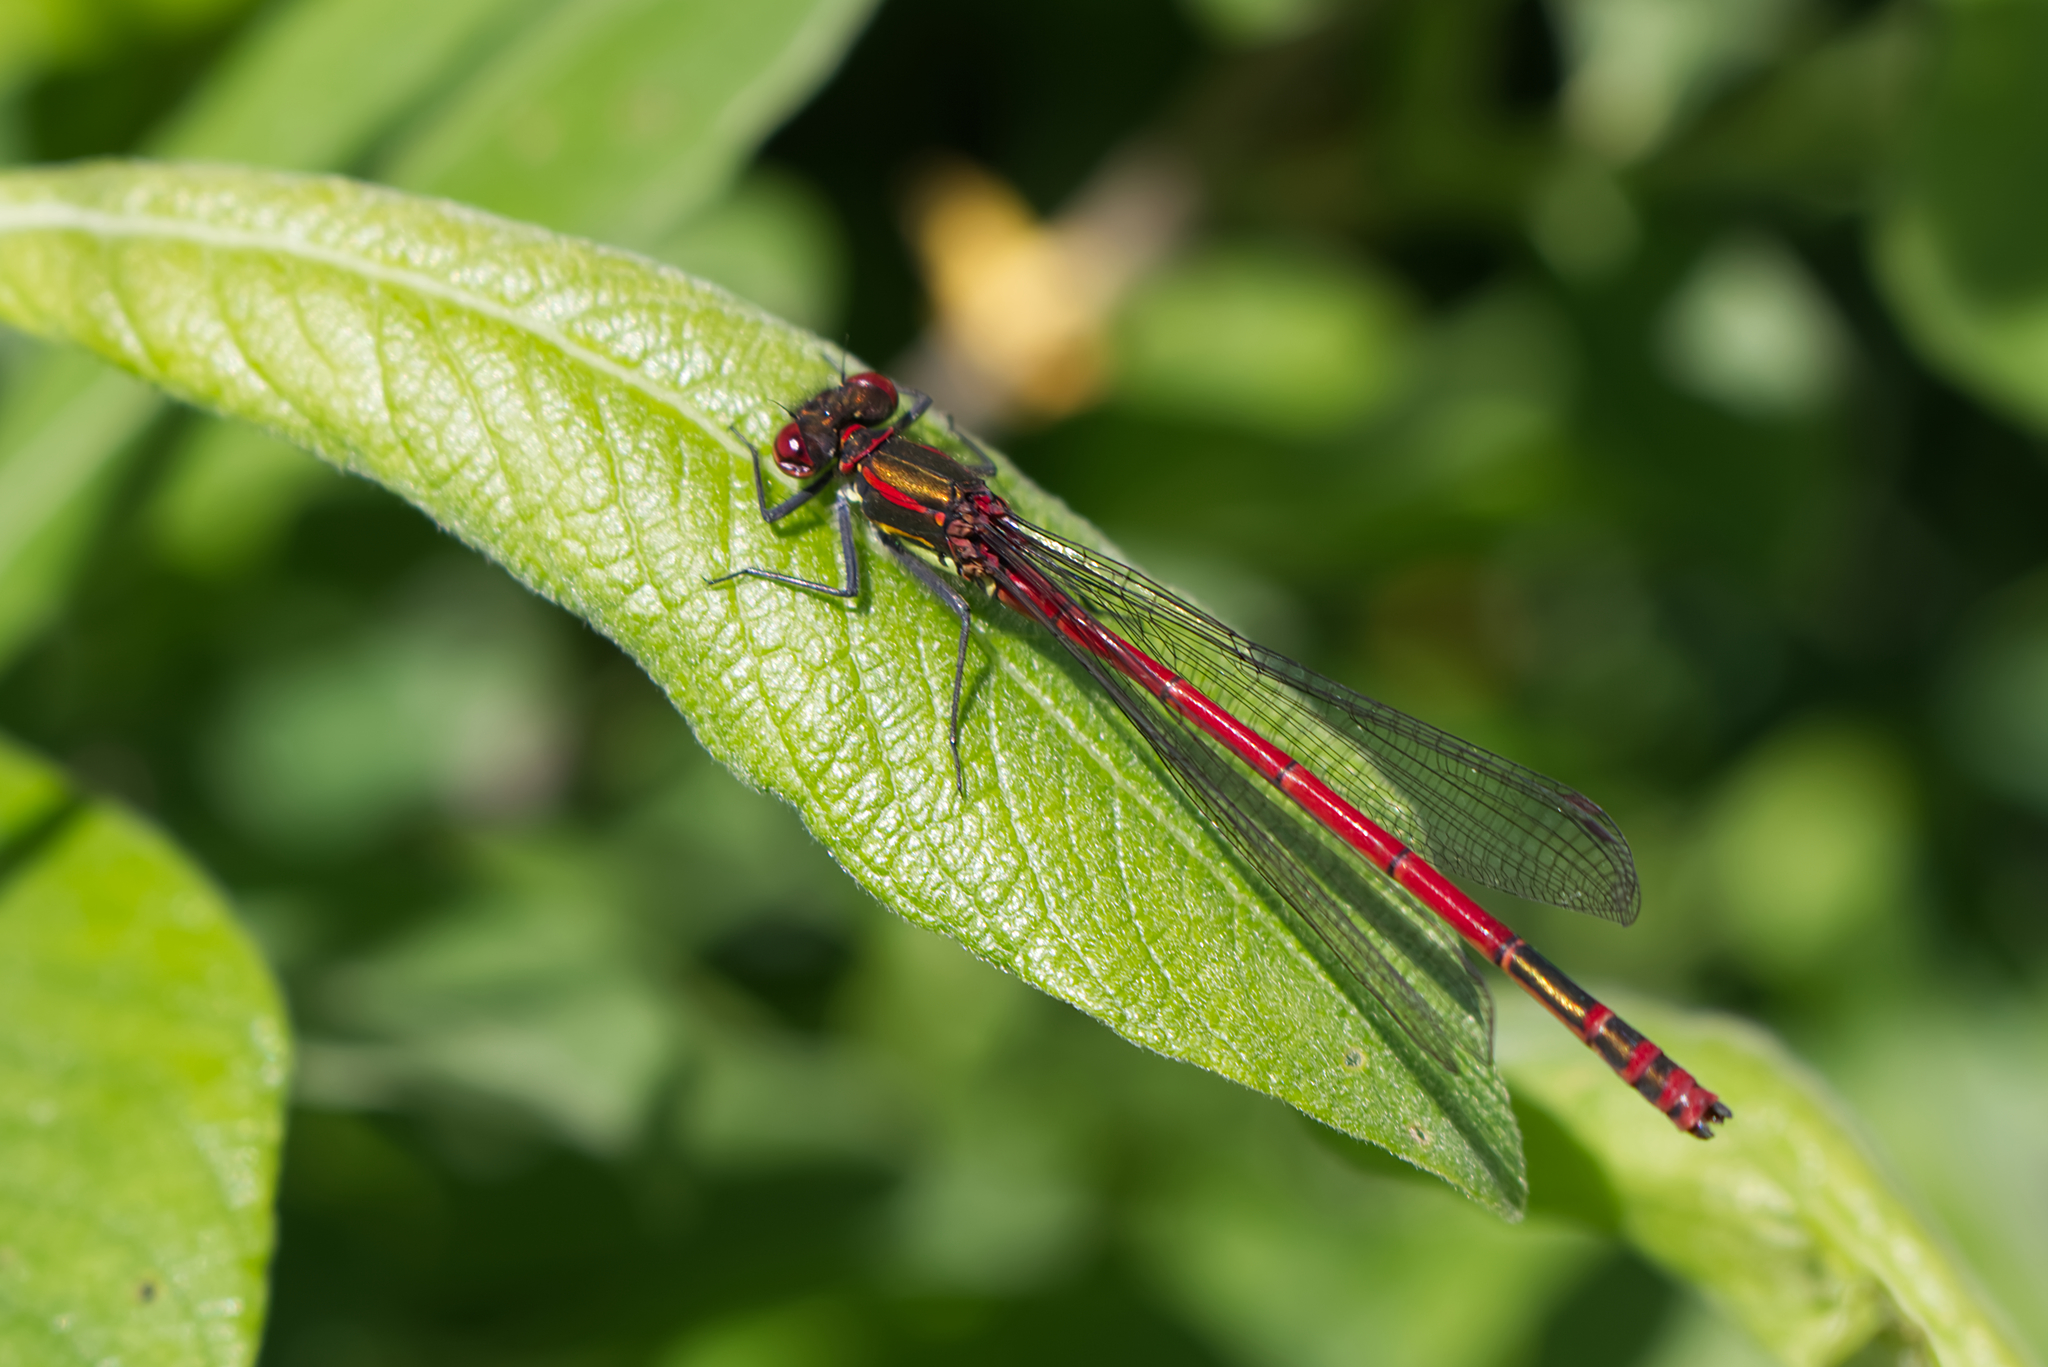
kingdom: Animalia
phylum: Arthropoda
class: Insecta
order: Odonata
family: Coenagrionidae
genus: Pyrrhosoma
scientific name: Pyrrhosoma nymphula
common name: Large red damsel
